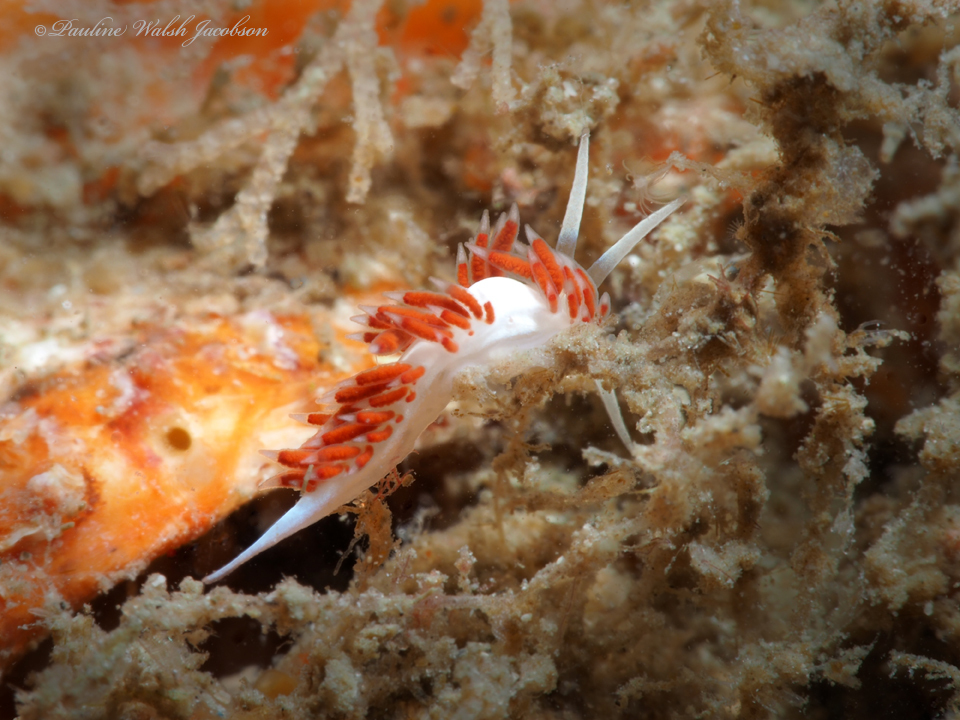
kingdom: Animalia
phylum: Mollusca
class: Gastropoda
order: Nudibranchia
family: Flabellinidae
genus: Flabellina
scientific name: Flabellina dushia
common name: Dushia flabellina
